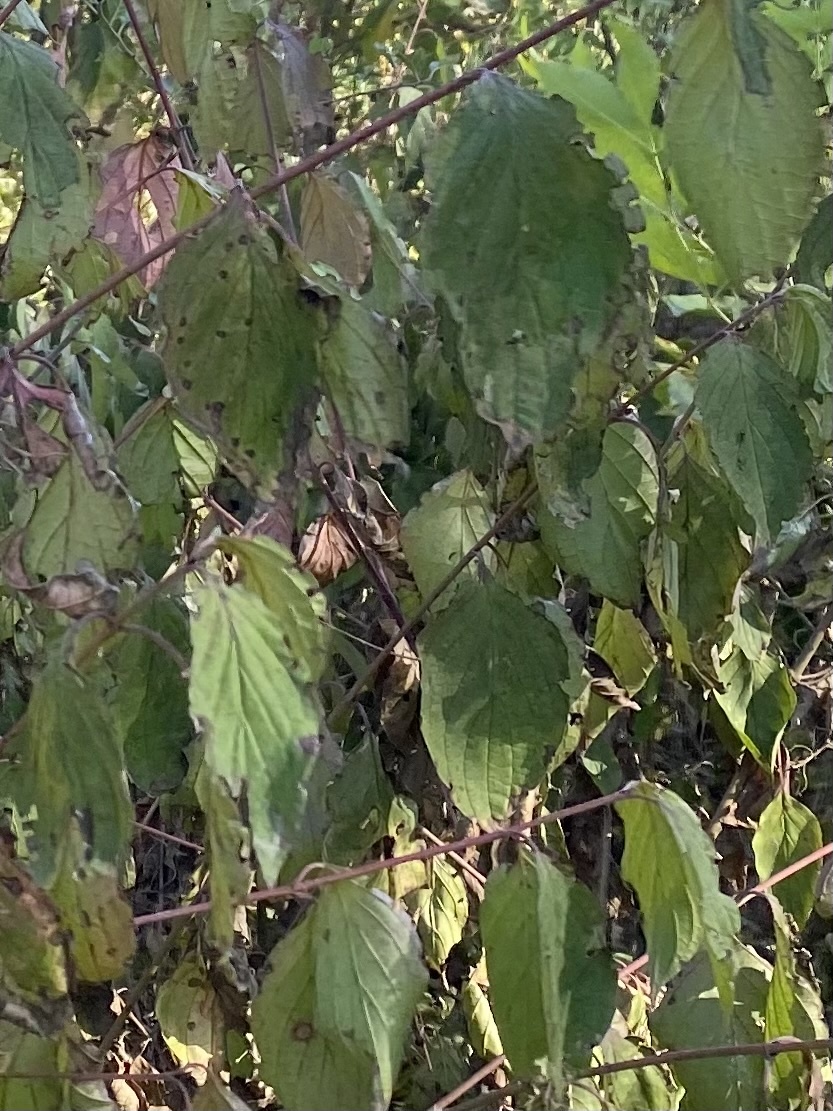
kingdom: Plantae
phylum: Tracheophyta
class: Magnoliopsida
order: Cornales
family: Cornaceae
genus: Cornus
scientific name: Cornus sanguinea
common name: Dogwood
